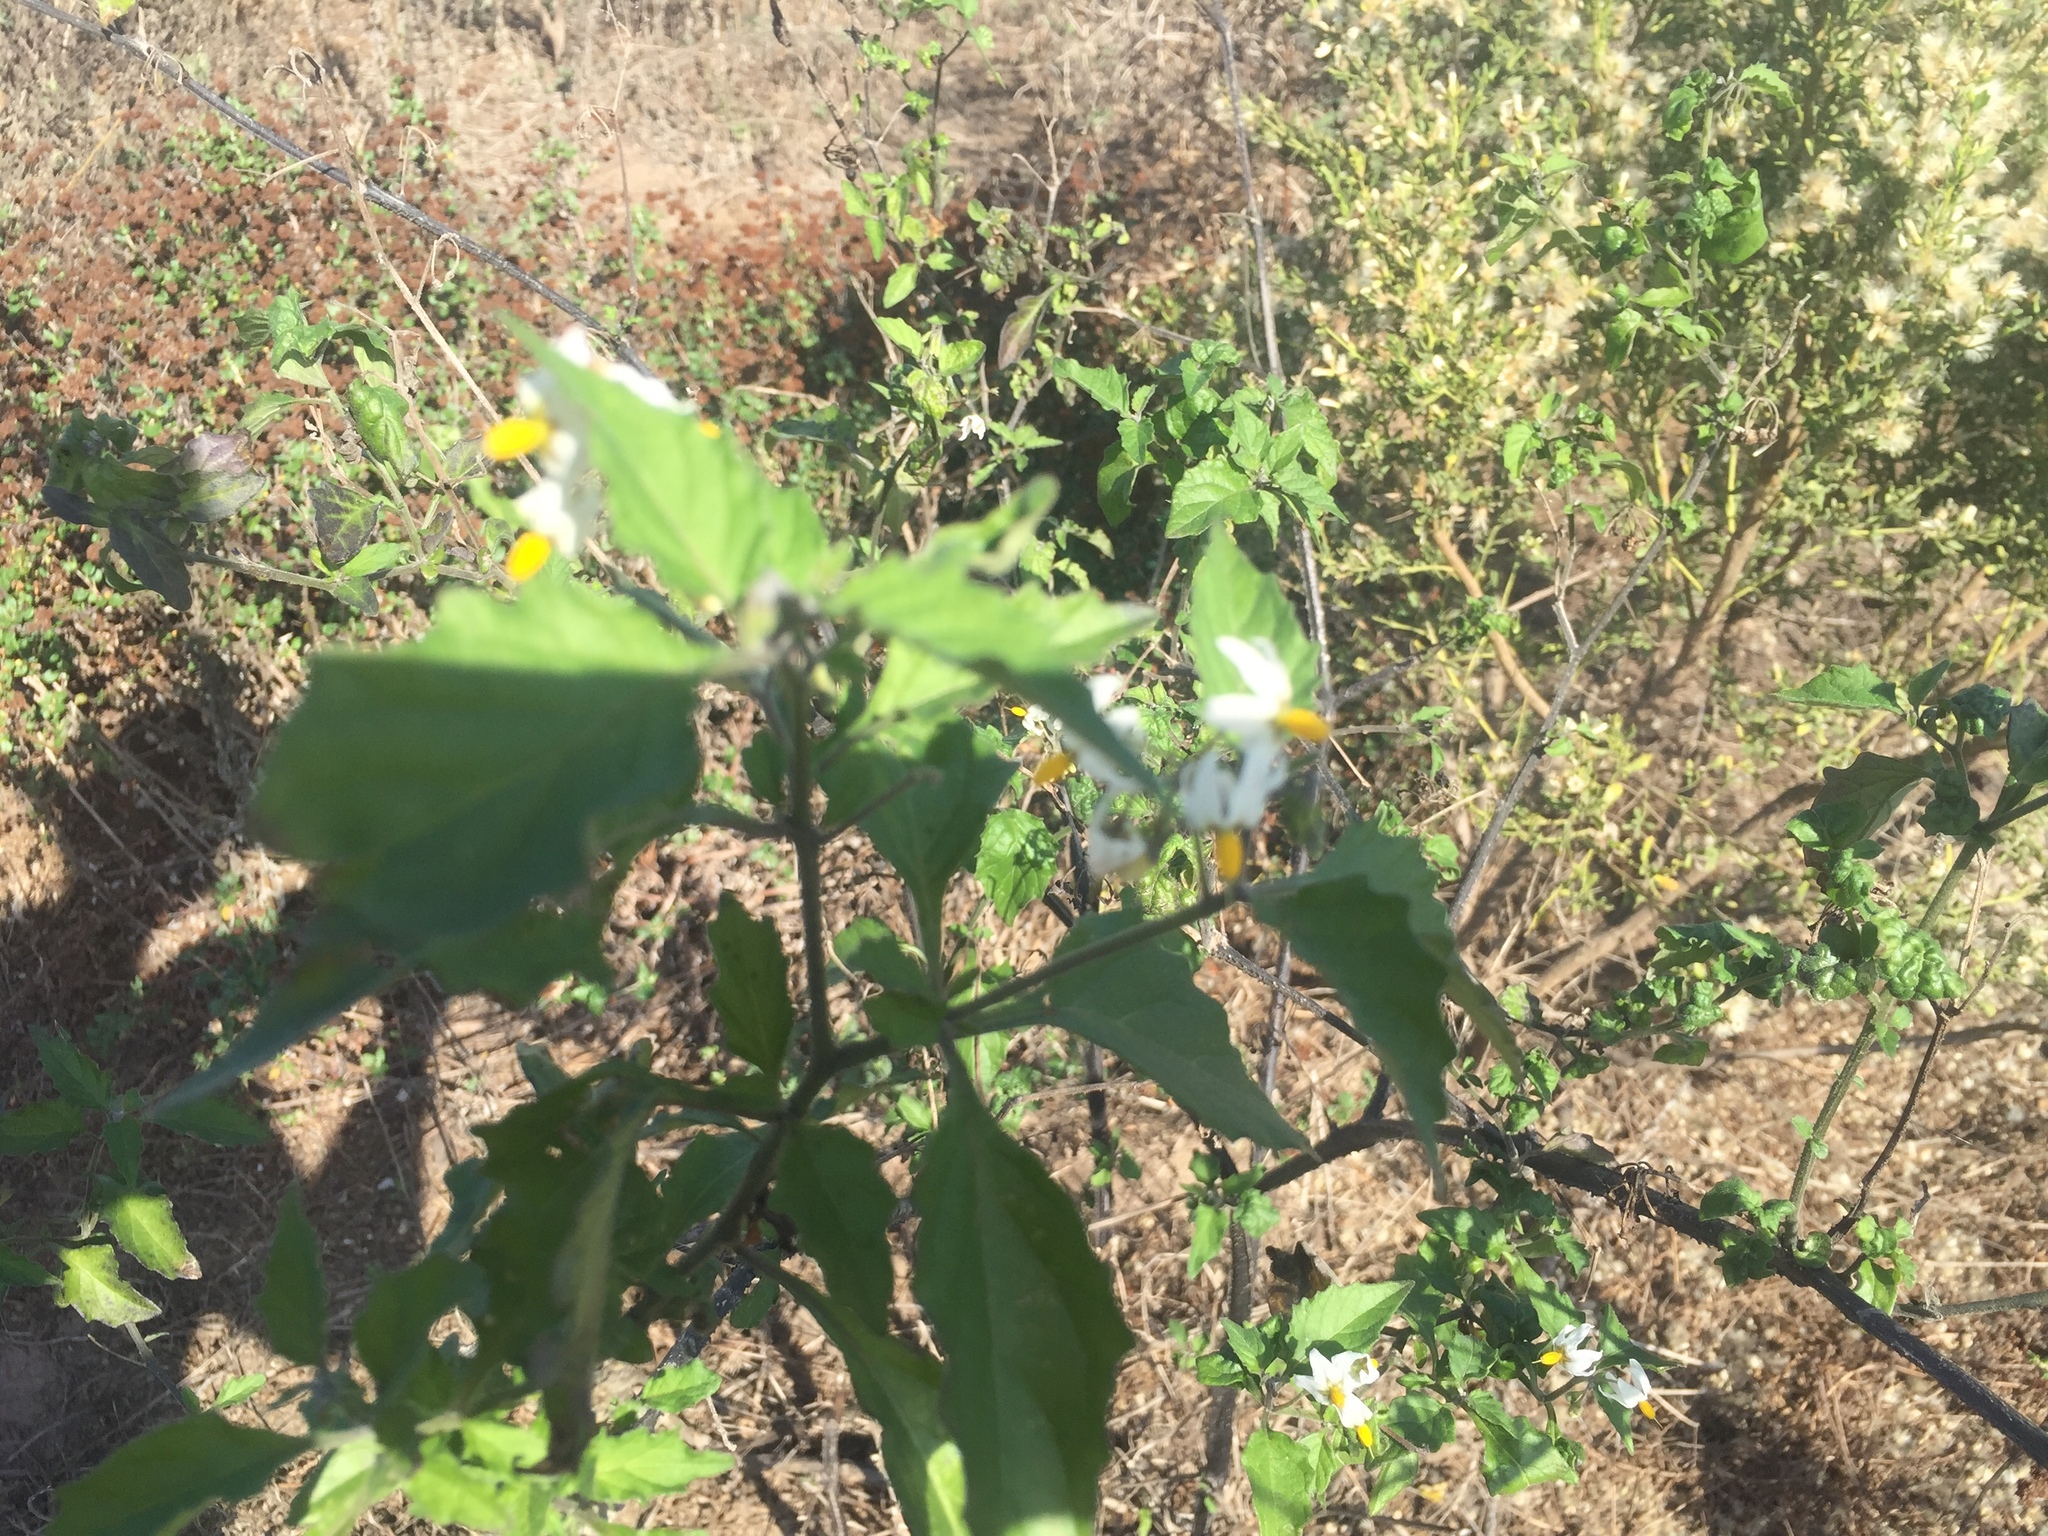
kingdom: Plantae
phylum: Tracheophyta
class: Magnoliopsida
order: Solanales
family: Solanaceae
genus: Solanum
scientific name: Solanum douglasii
